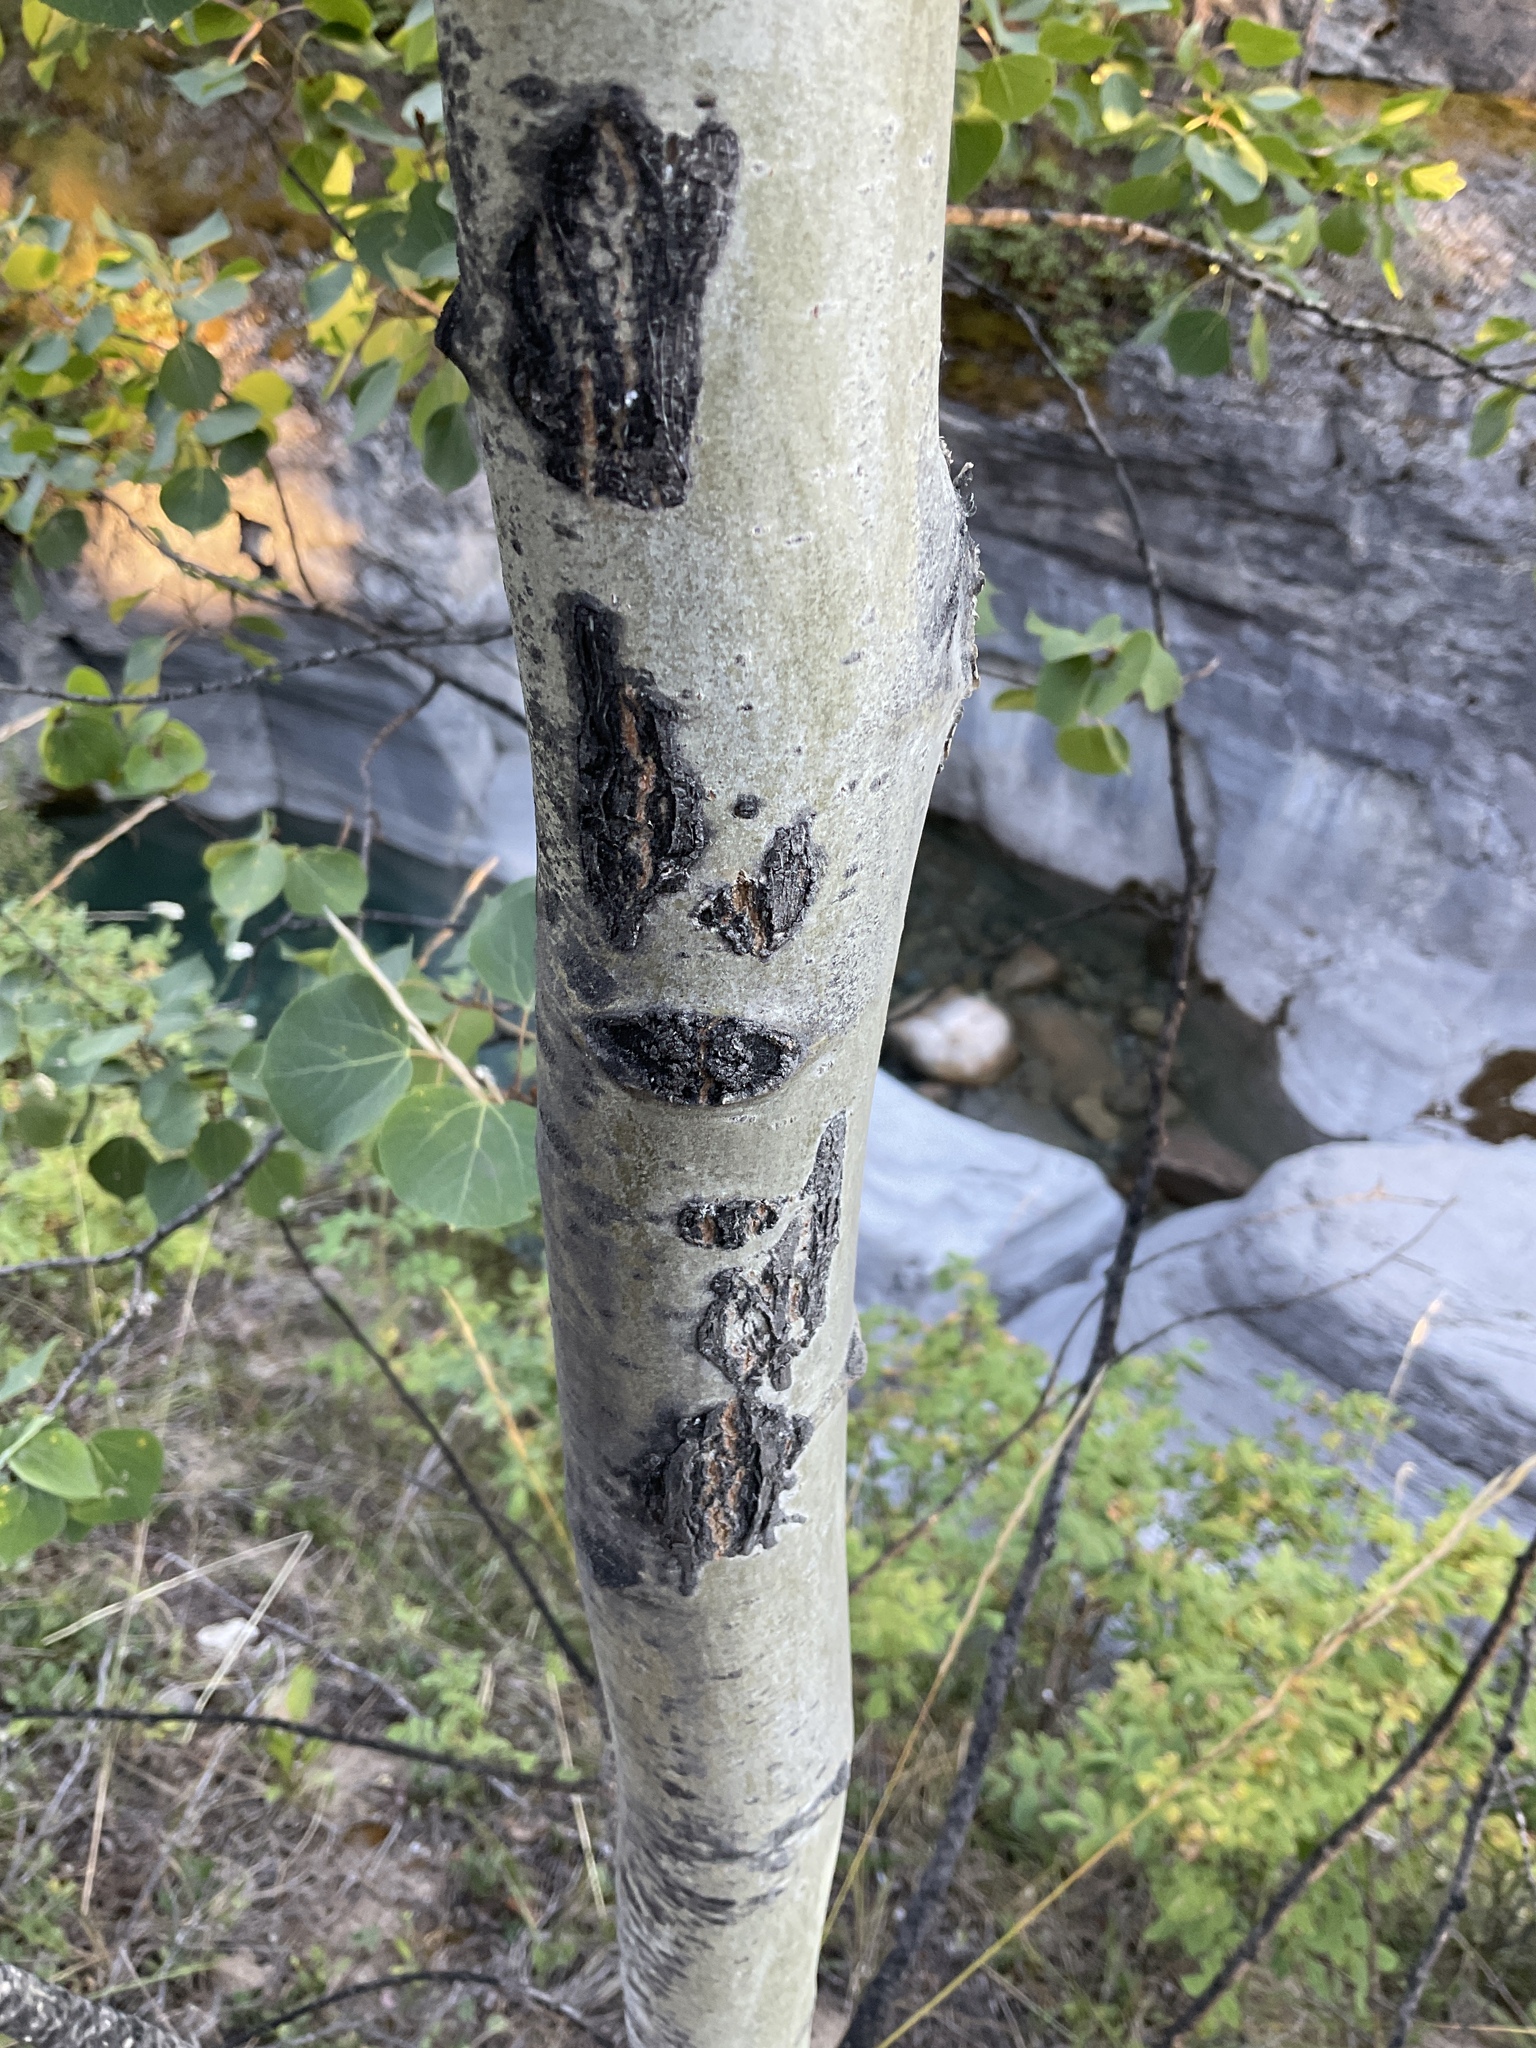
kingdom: Plantae
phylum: Tracheophyta
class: Magnoliopsida
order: Malpighiales
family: Salicaceae
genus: Populus
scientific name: Populus tremuloides
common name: Quaking aspen
